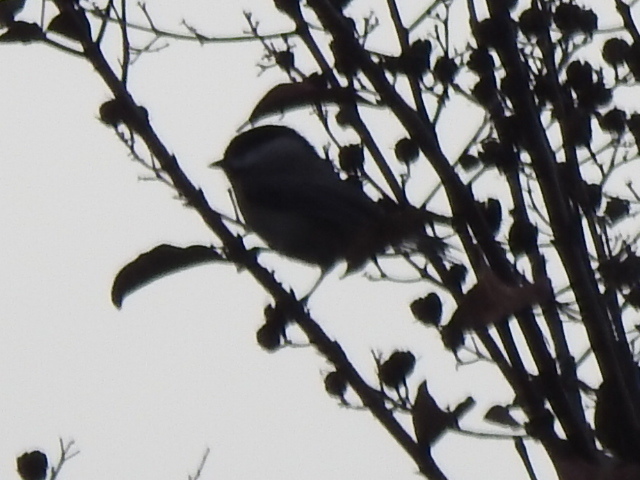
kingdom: Animalia
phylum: Chordata
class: Aves
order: Passeriformes
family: Paridae
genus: Poecile
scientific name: Poecile carolinensis
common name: Carolina chickadee
